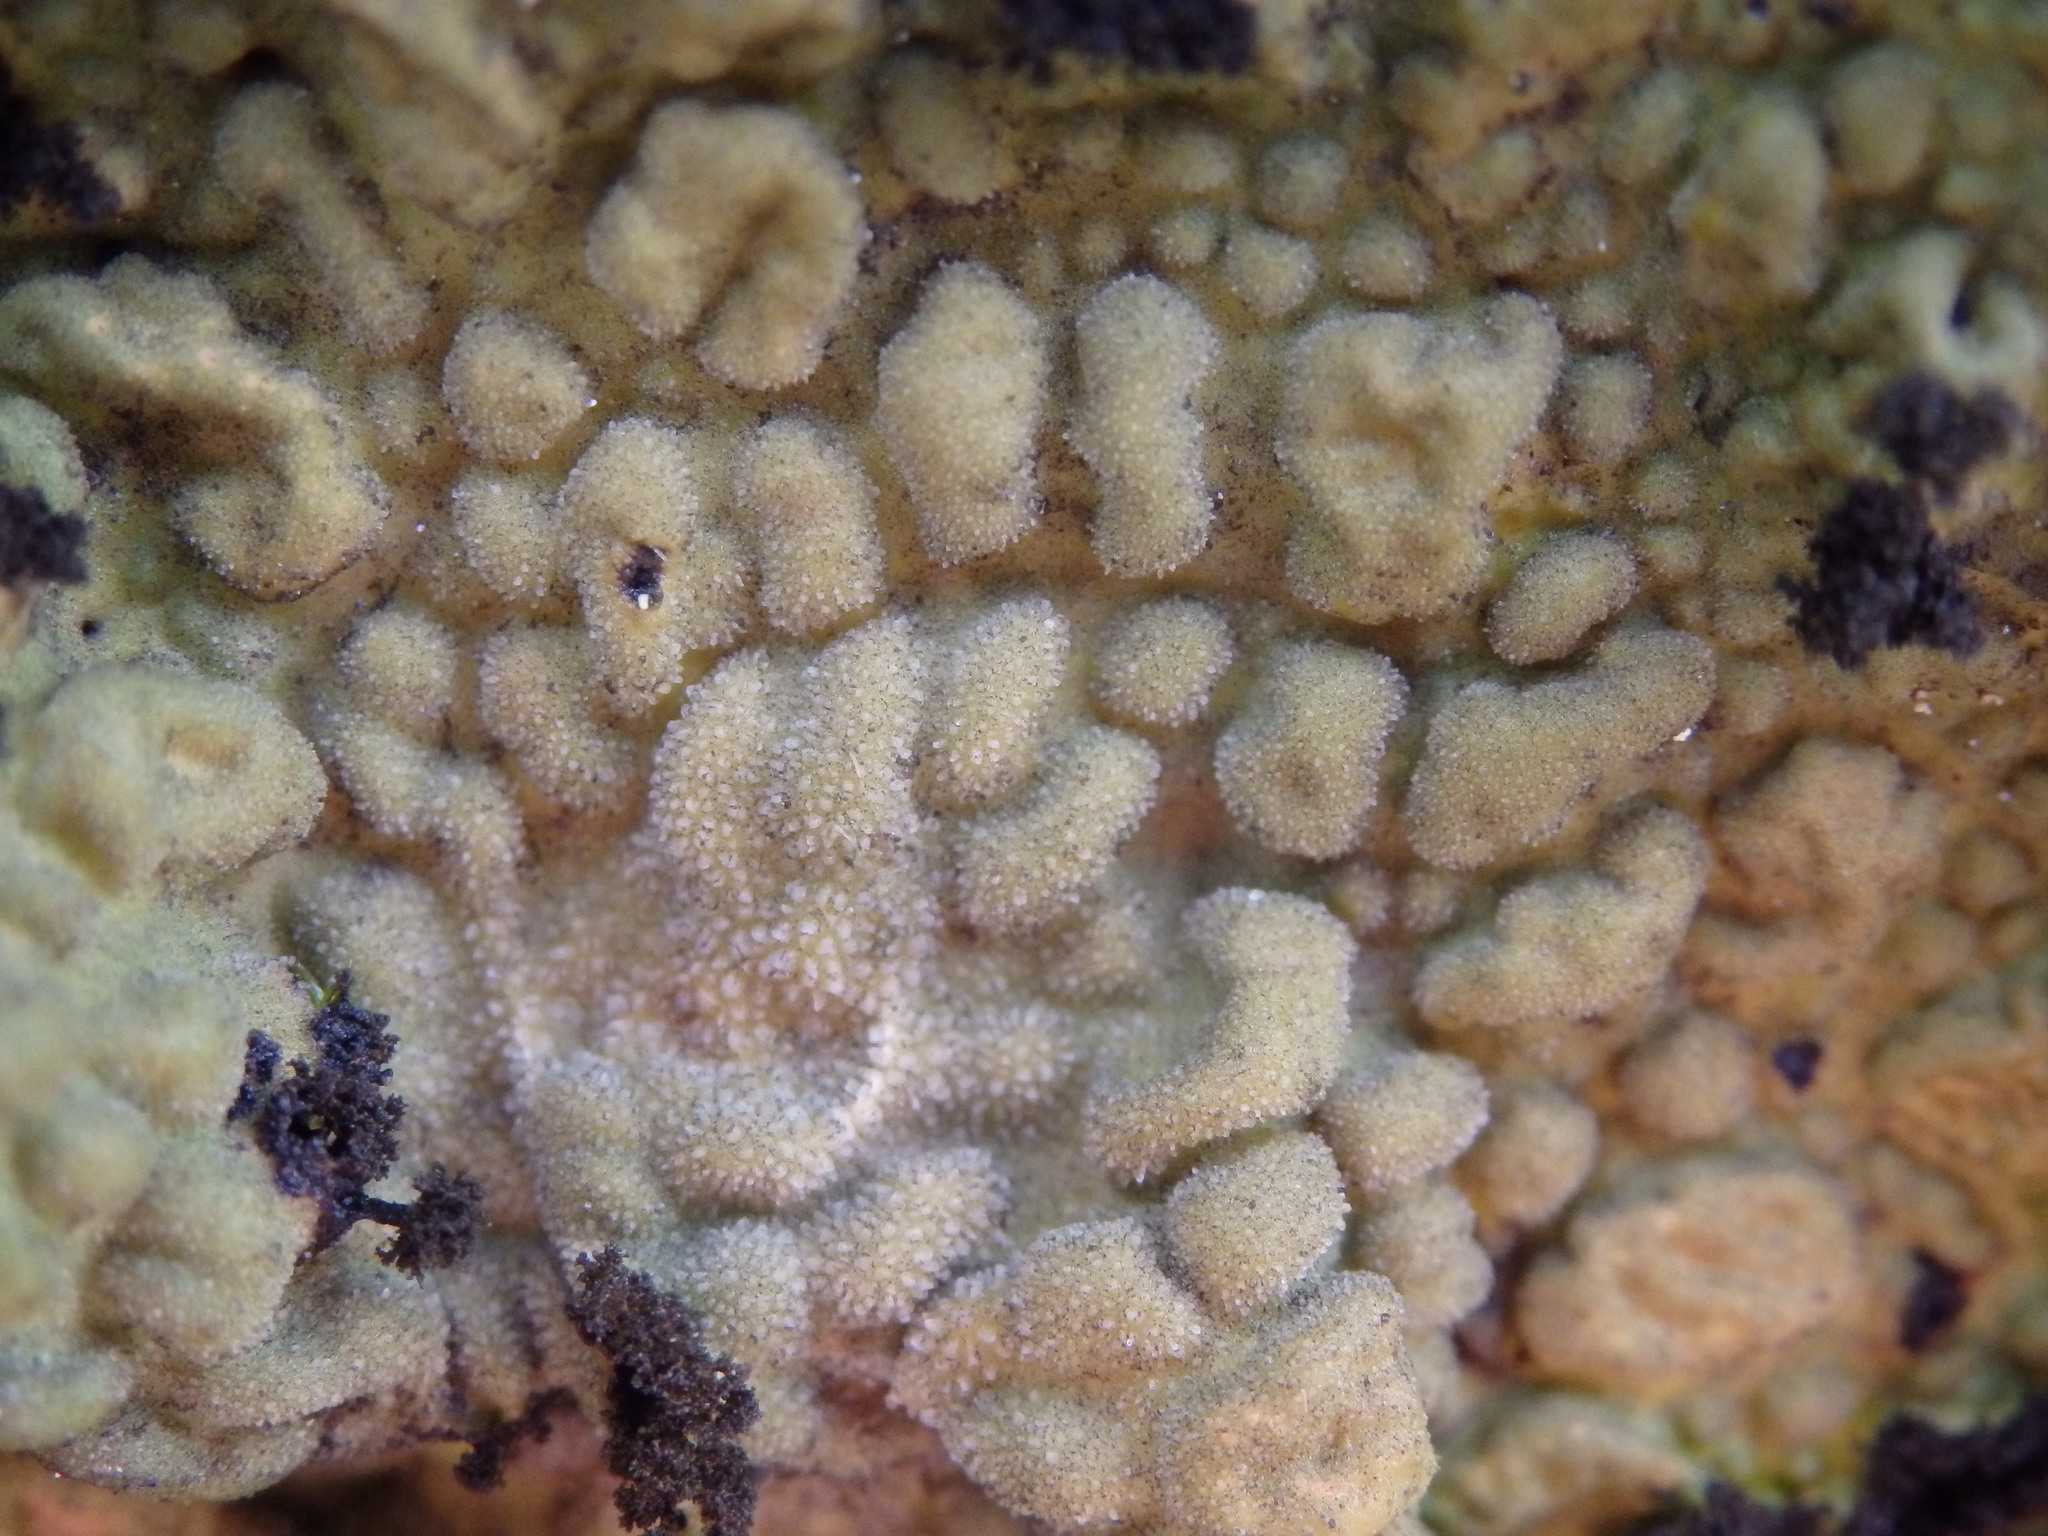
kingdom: Fungi
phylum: Ascomycota
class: Lecanoromycetes
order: Umbilicariales
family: Umbilicariaceae
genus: Lasallia
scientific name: Lasallia pustulata
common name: Blistered toadskin lichen
